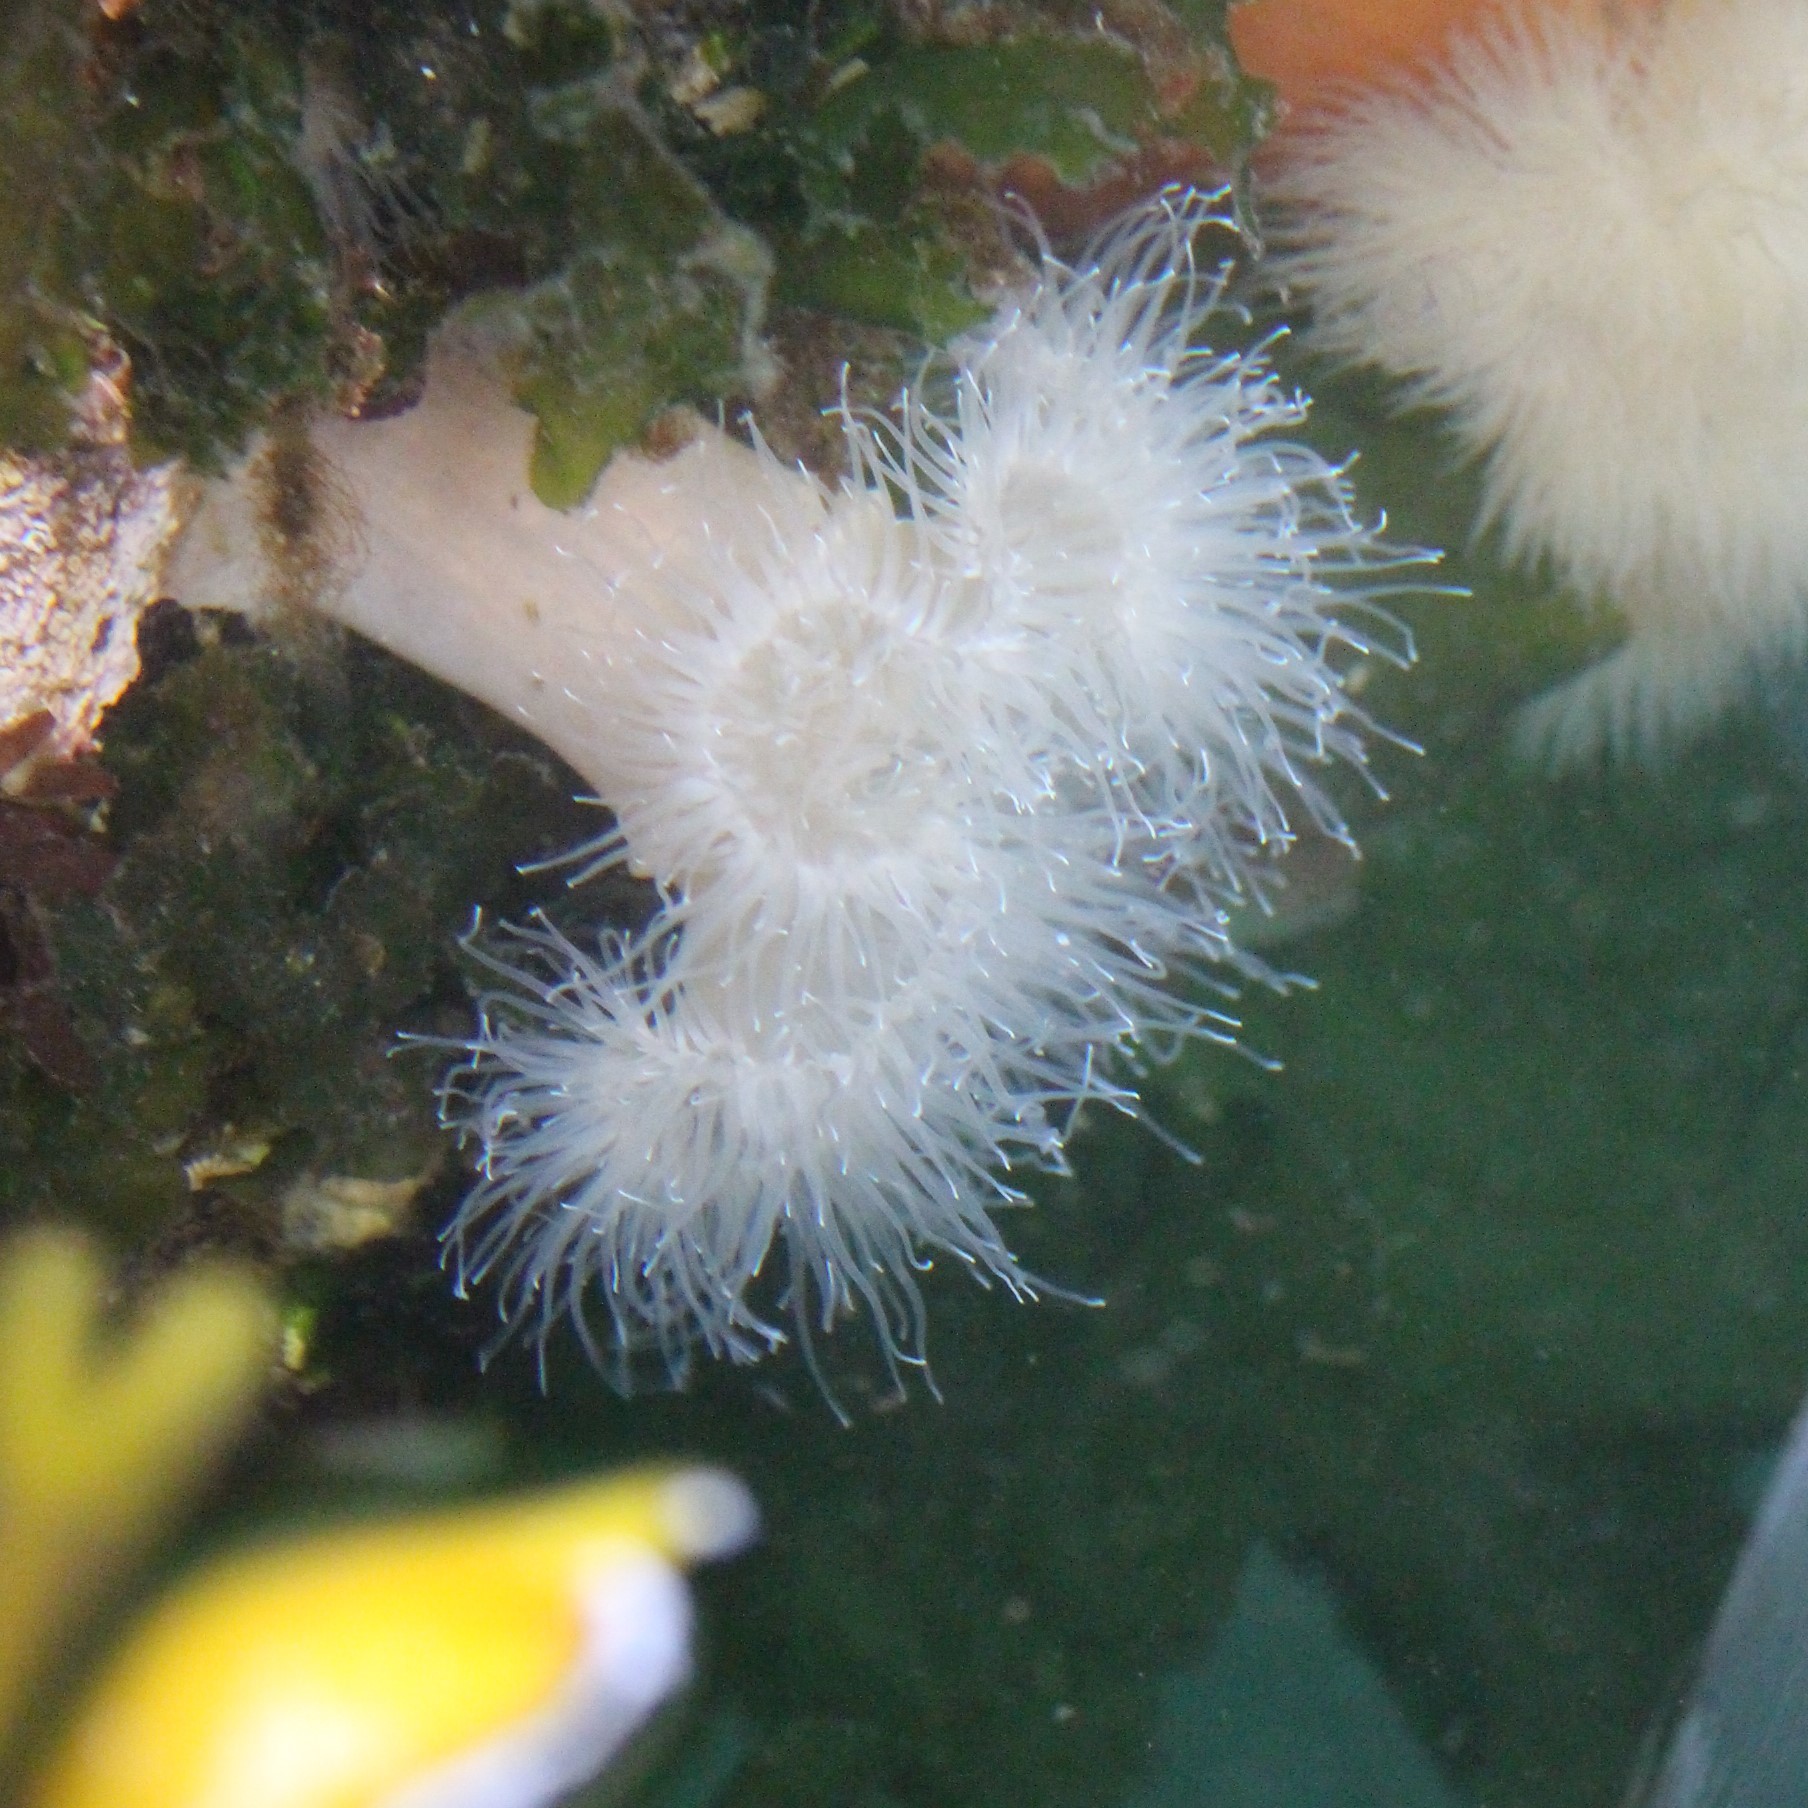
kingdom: Animalia
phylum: Cnidaria
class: Anthozoa
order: Actiniaria
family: Metridiidae
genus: Metridium
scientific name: Metridium senile
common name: Clonal plumose anemone
